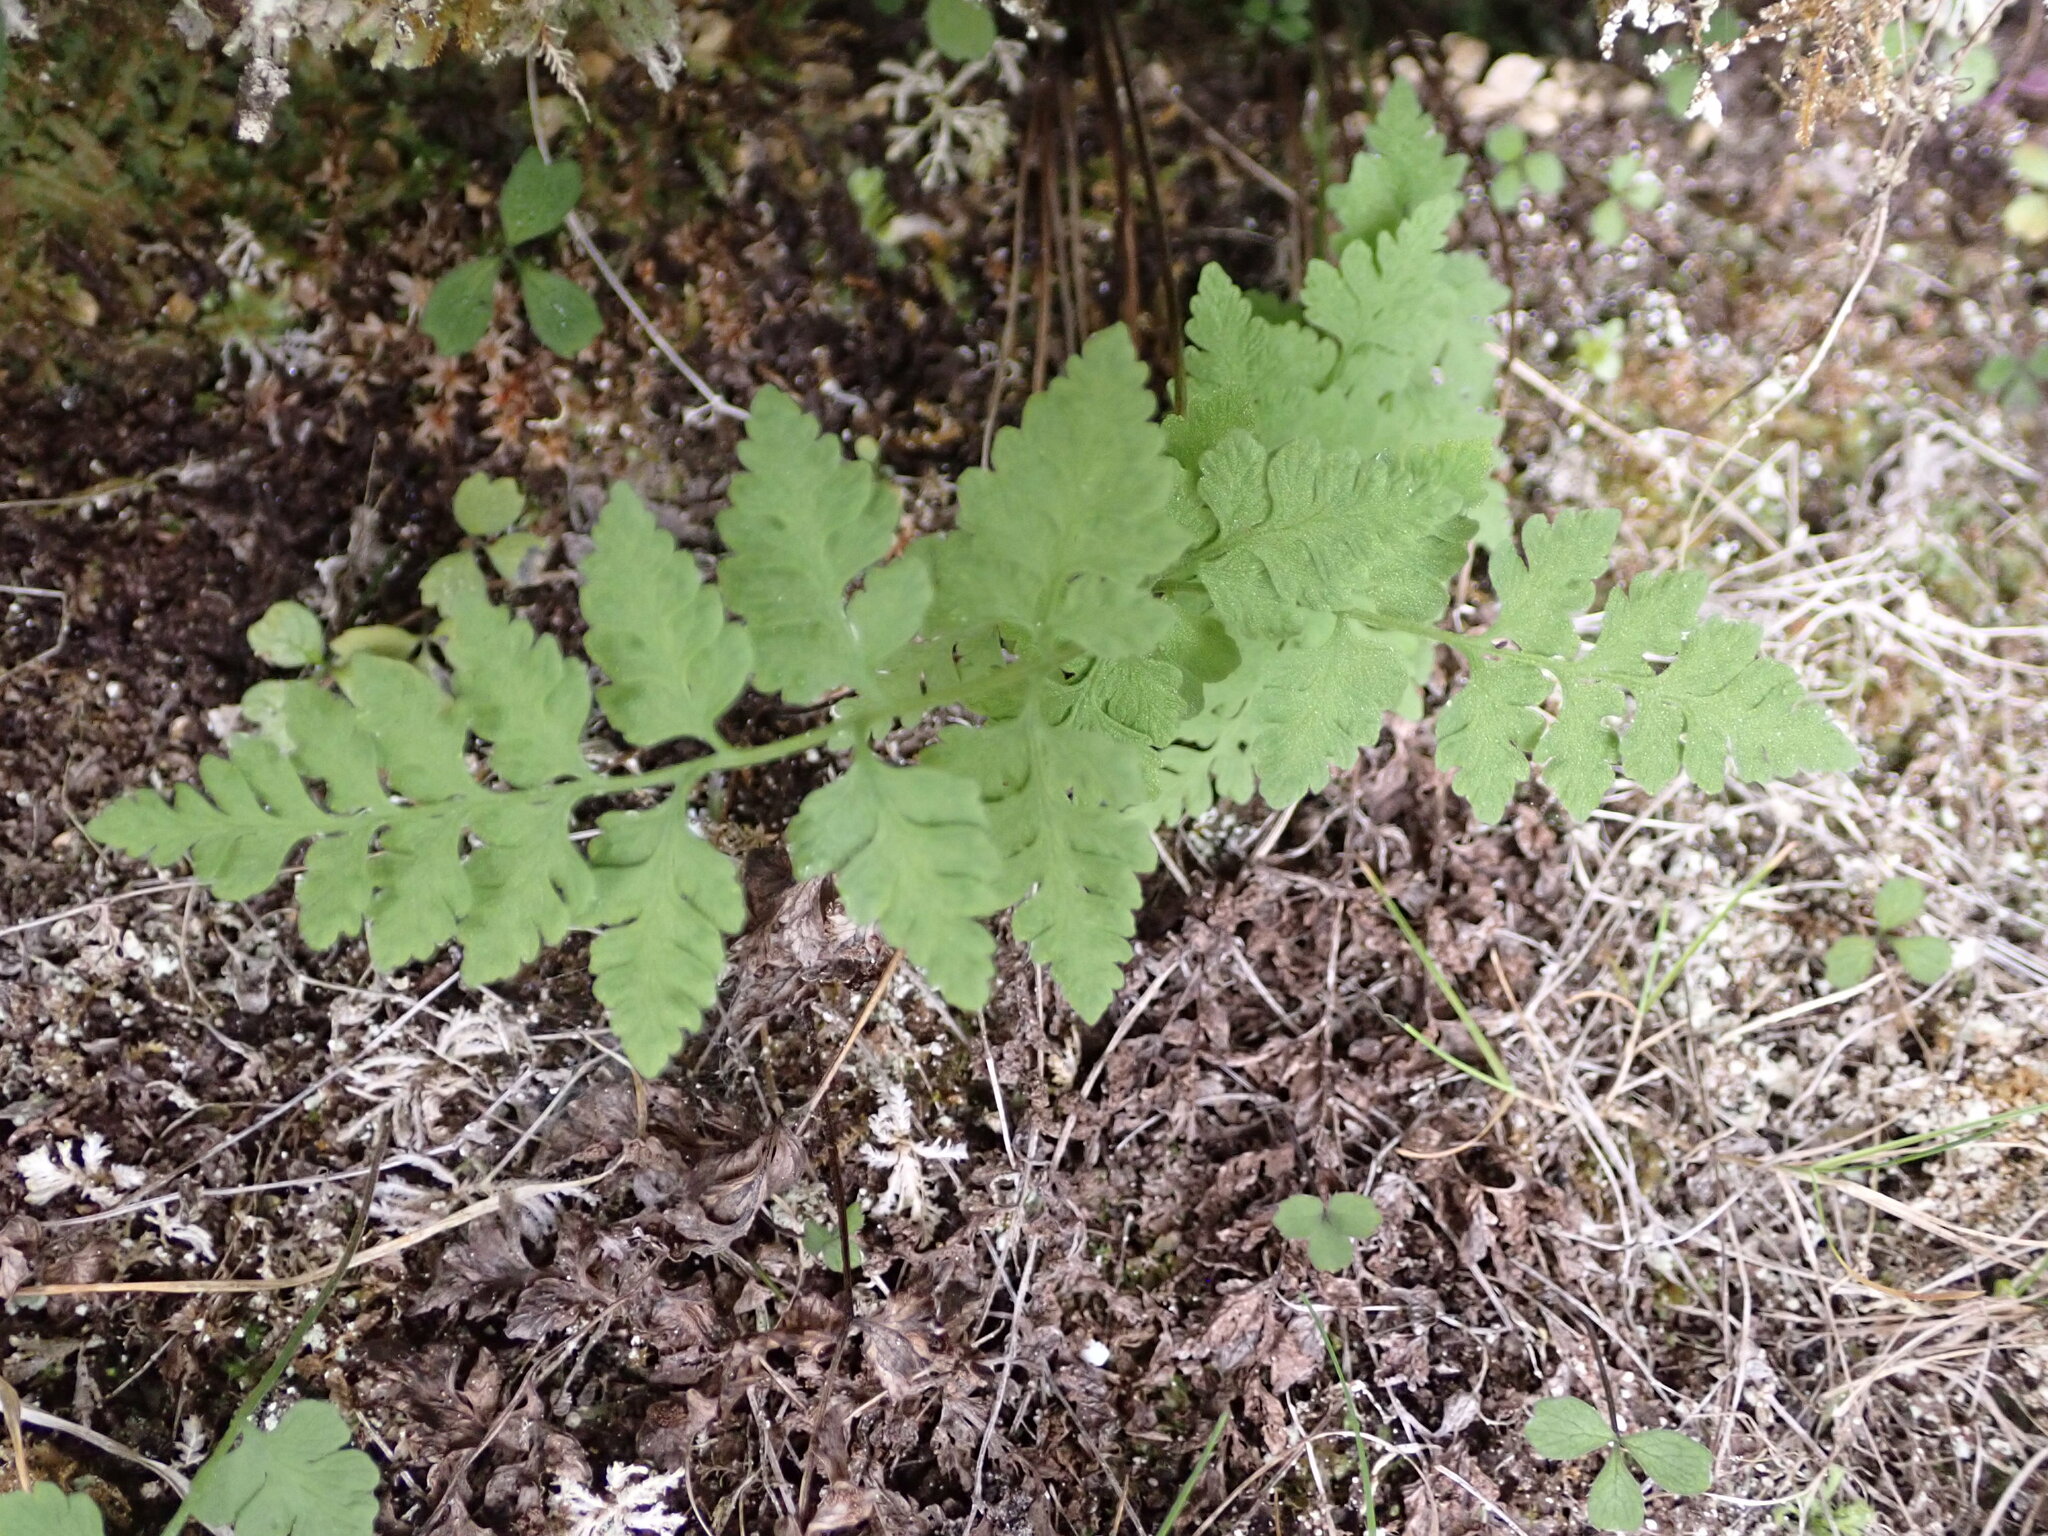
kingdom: Plantae
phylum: Tracheophyta
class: Polypodiopsida
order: Polypodiales
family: Cystopteridaceae
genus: Cystopteris
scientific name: Cystopteris tasmanica
